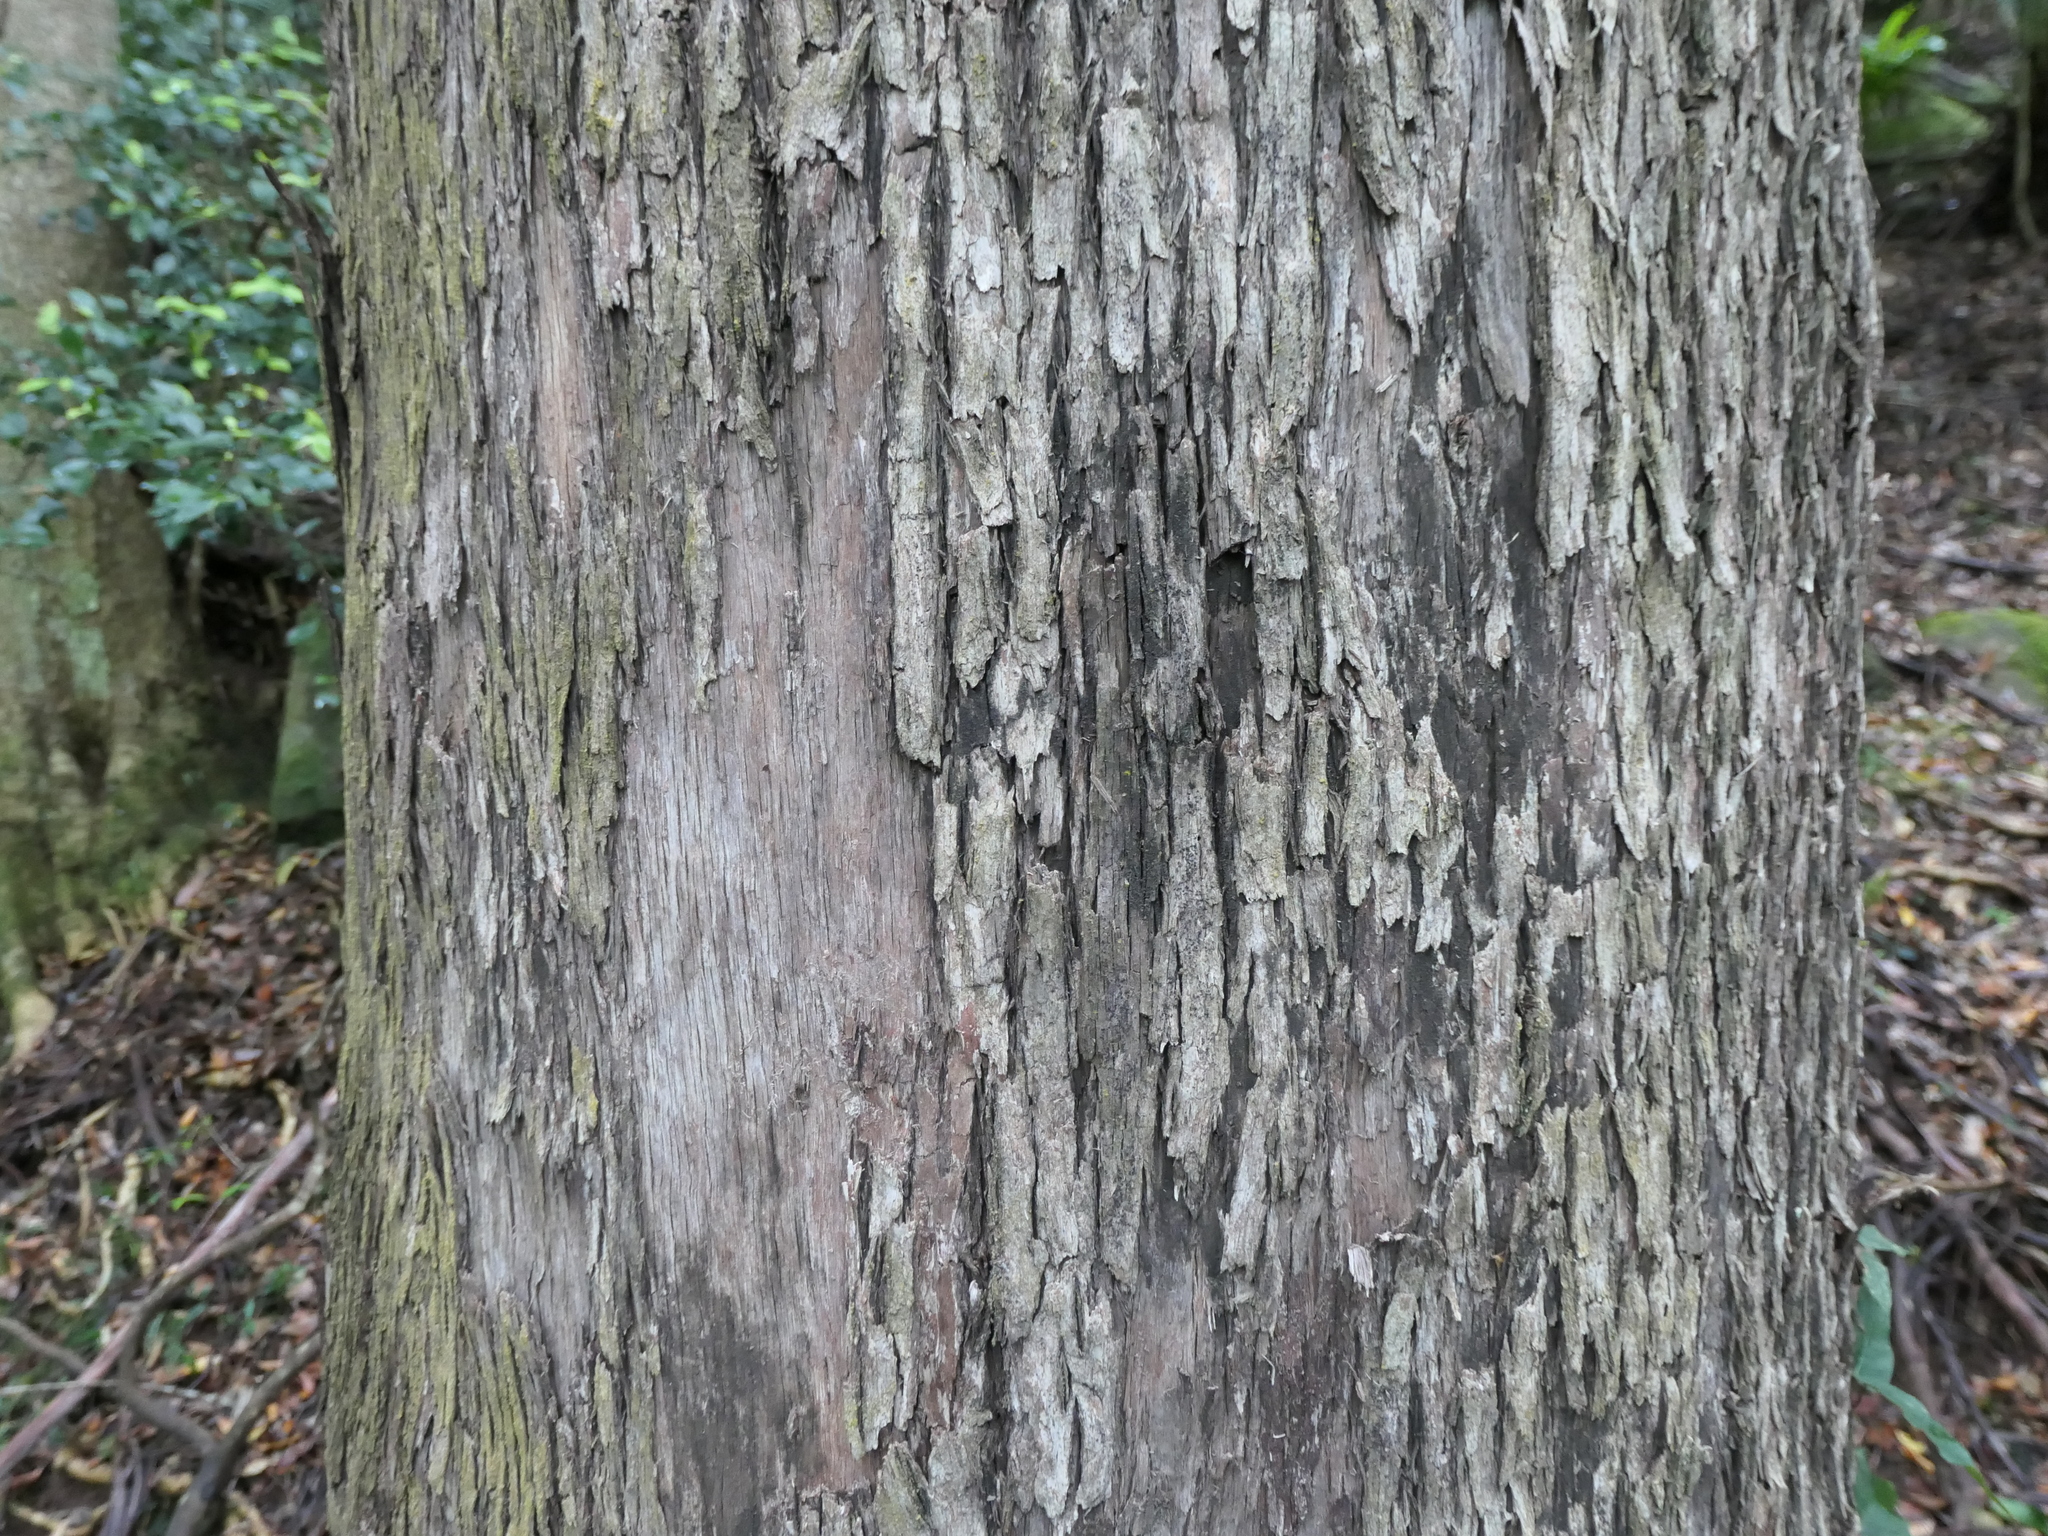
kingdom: Plantae
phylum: Tracheophyta
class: Magnoliopsida
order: Myrtales
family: Myrtaceae
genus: Eucalyptus
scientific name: Eucalyptus quadrangulata
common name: Coastal box
